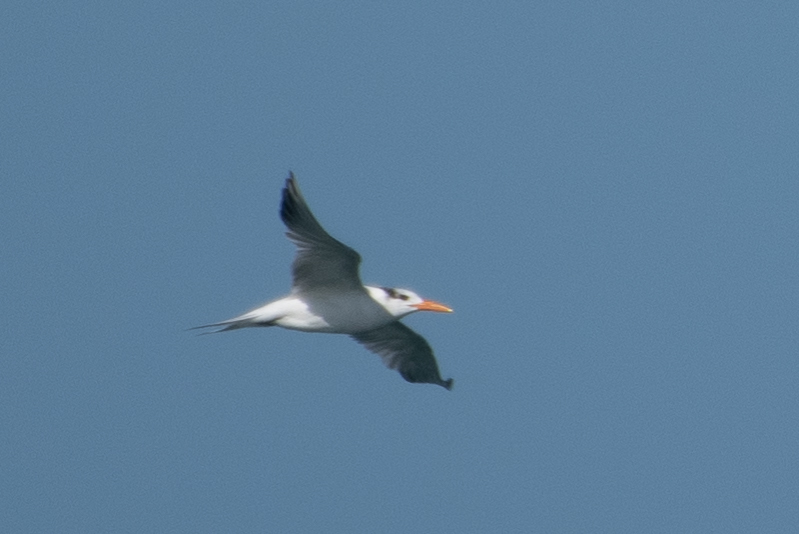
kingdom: Animalia
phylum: Chordata
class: Aves
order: Charadriiformes
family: Laridae
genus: Thalasseus
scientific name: Thalasseus maximus
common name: Royal tern
